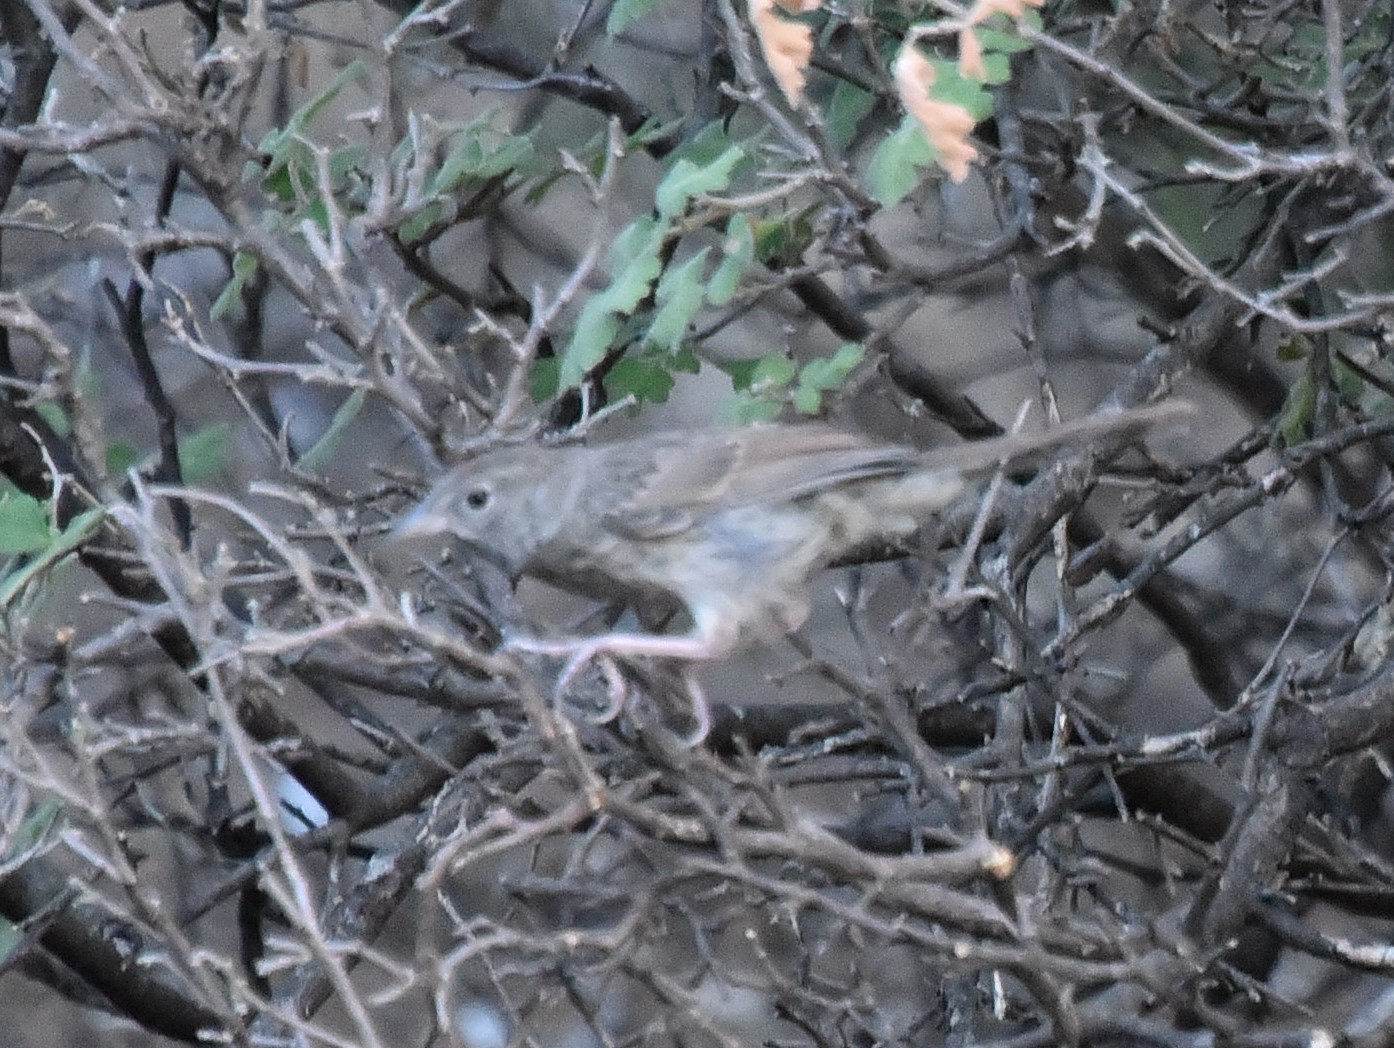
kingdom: Animalia
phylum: Chordata
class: Aves
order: Passeriformes
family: Passerellidae
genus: Aimophila
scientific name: Aimophila ruficeps
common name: Rufous-crowned sparrow
